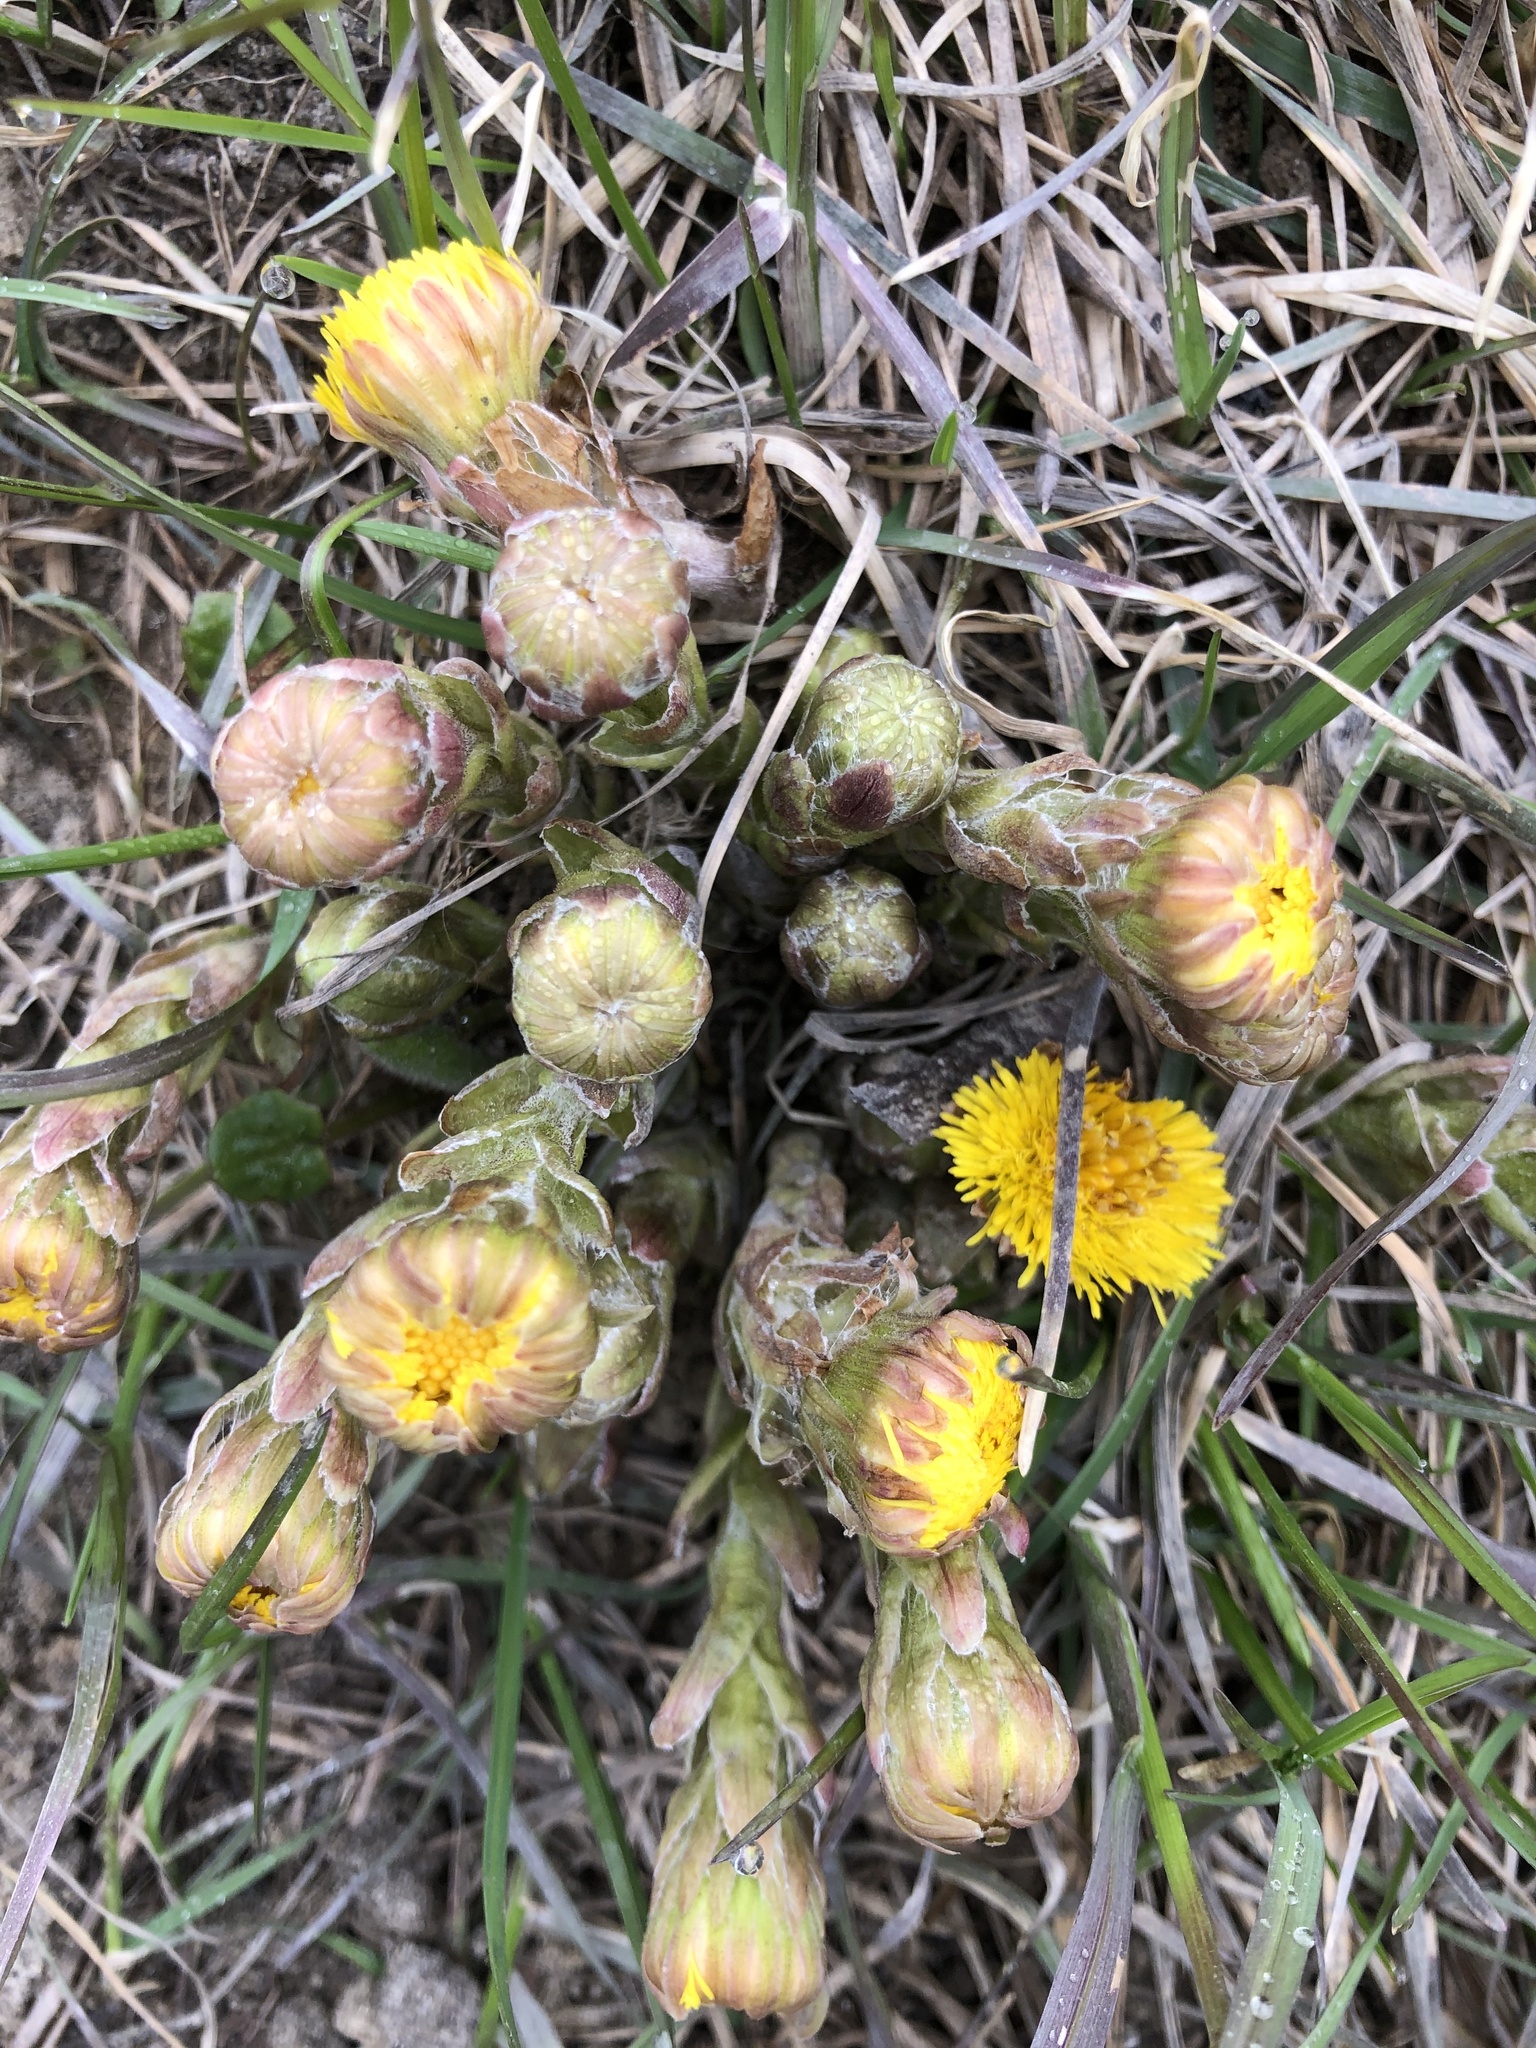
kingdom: Plantae
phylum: Tracheophyta
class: Magnoliopsida
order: Asterales
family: Asteraceae
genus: Tussilago
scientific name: Tussilago farfara
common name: Coltsfoot
